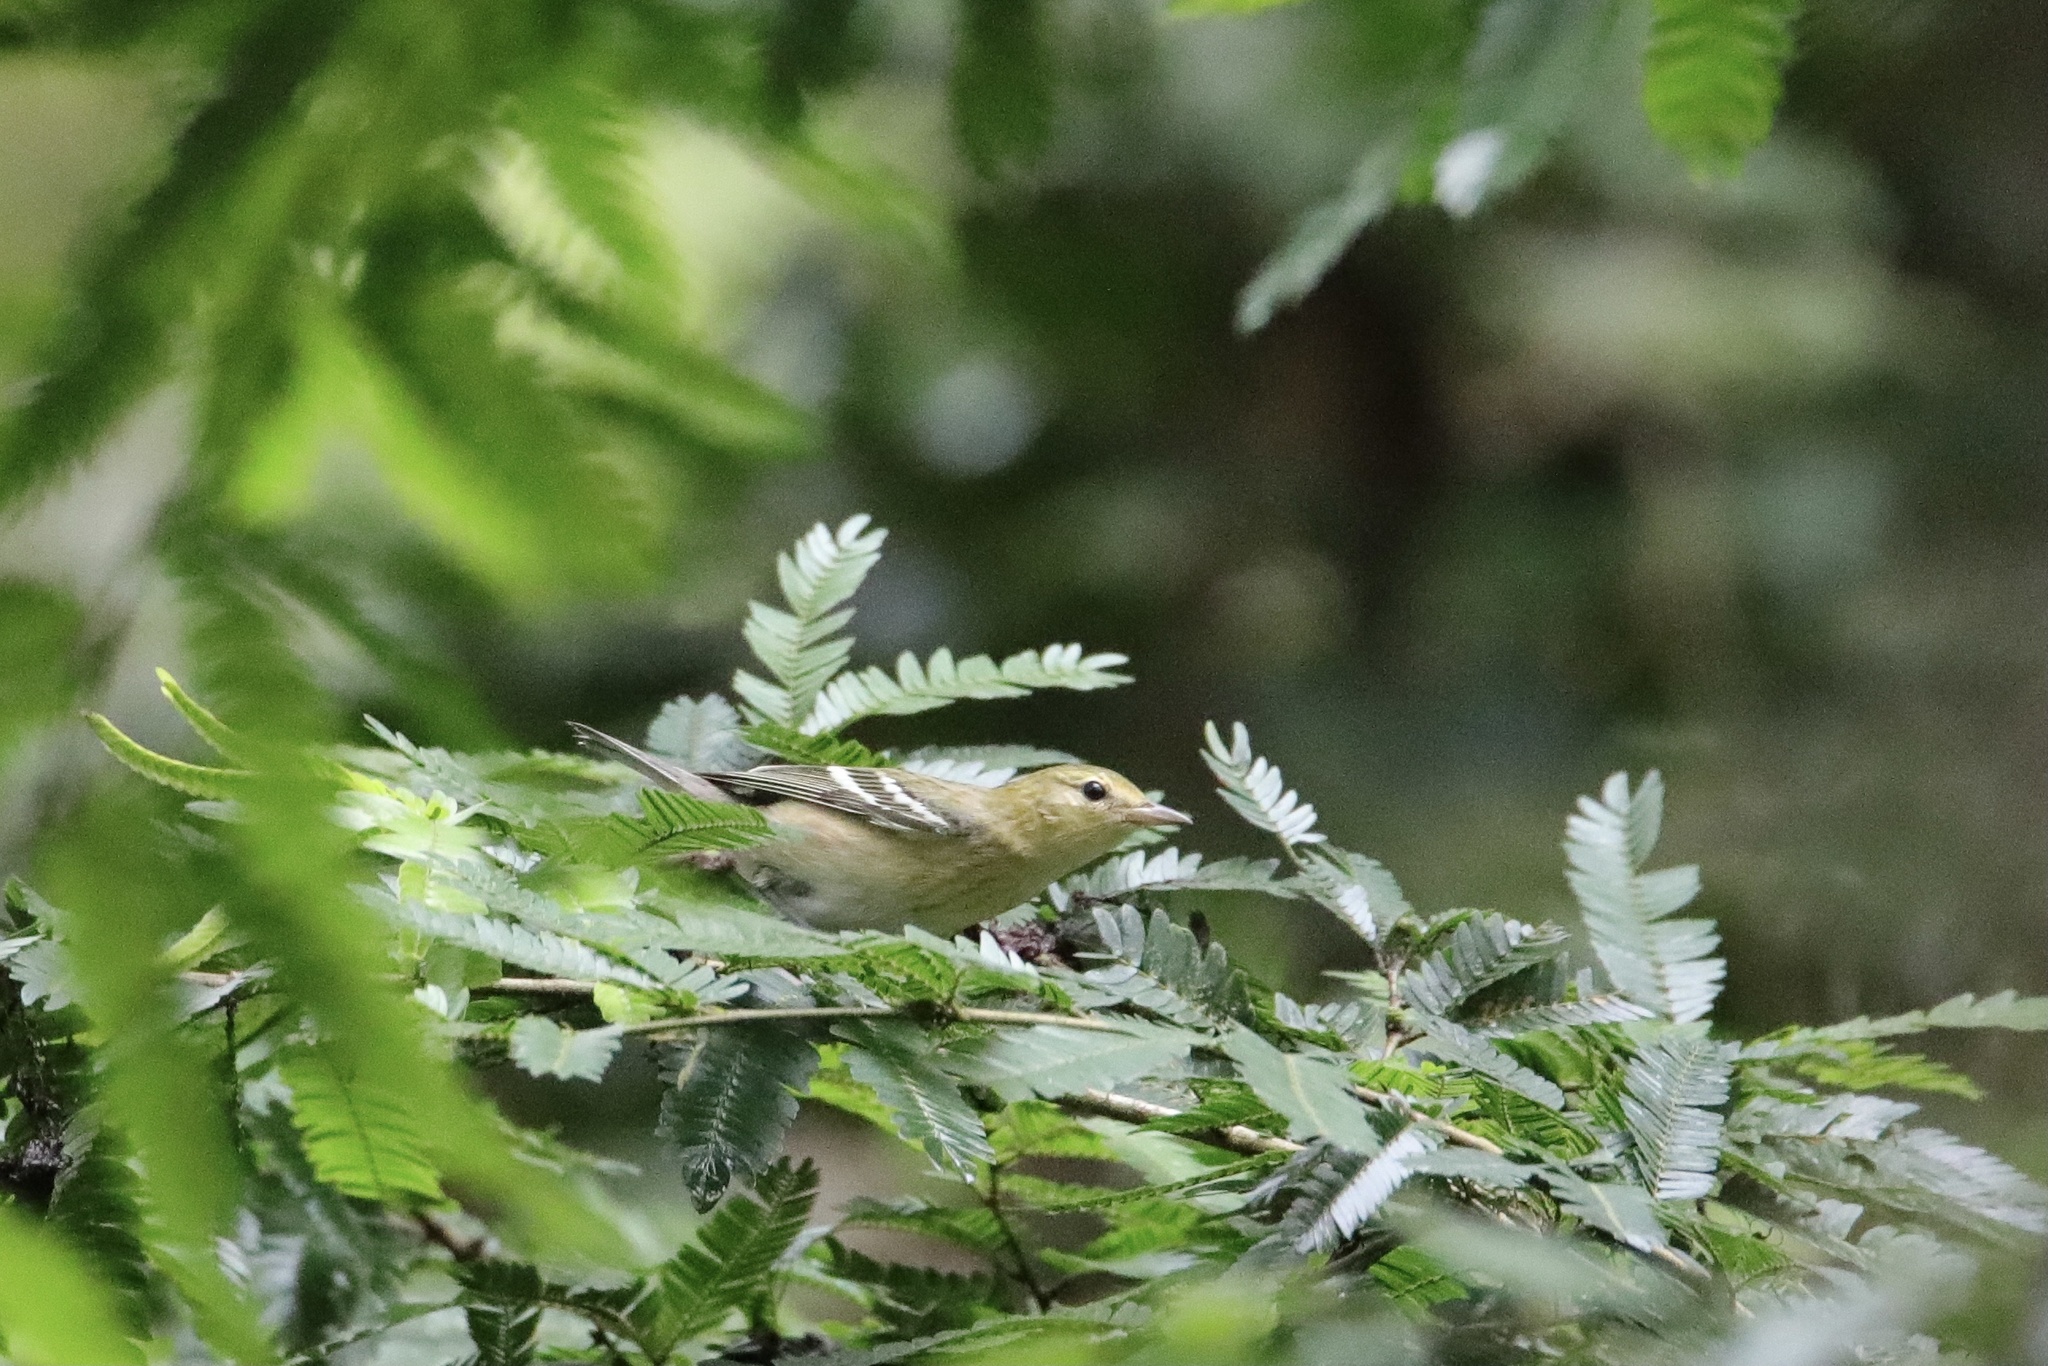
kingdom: Animalia
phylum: Chordata
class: Aves
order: Passeriformes
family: Parulidae
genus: Setophaga
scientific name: Setophaga castanea
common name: Bay-breasted warbler
